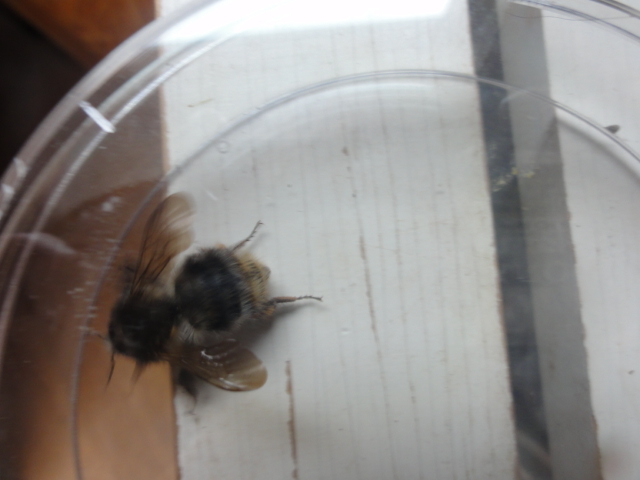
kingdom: Animalia
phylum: Arthropoda
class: Insecta
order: Hymenoptera
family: Apidae
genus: Bombus
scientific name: Bombus pascuorum
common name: Common carder bee
